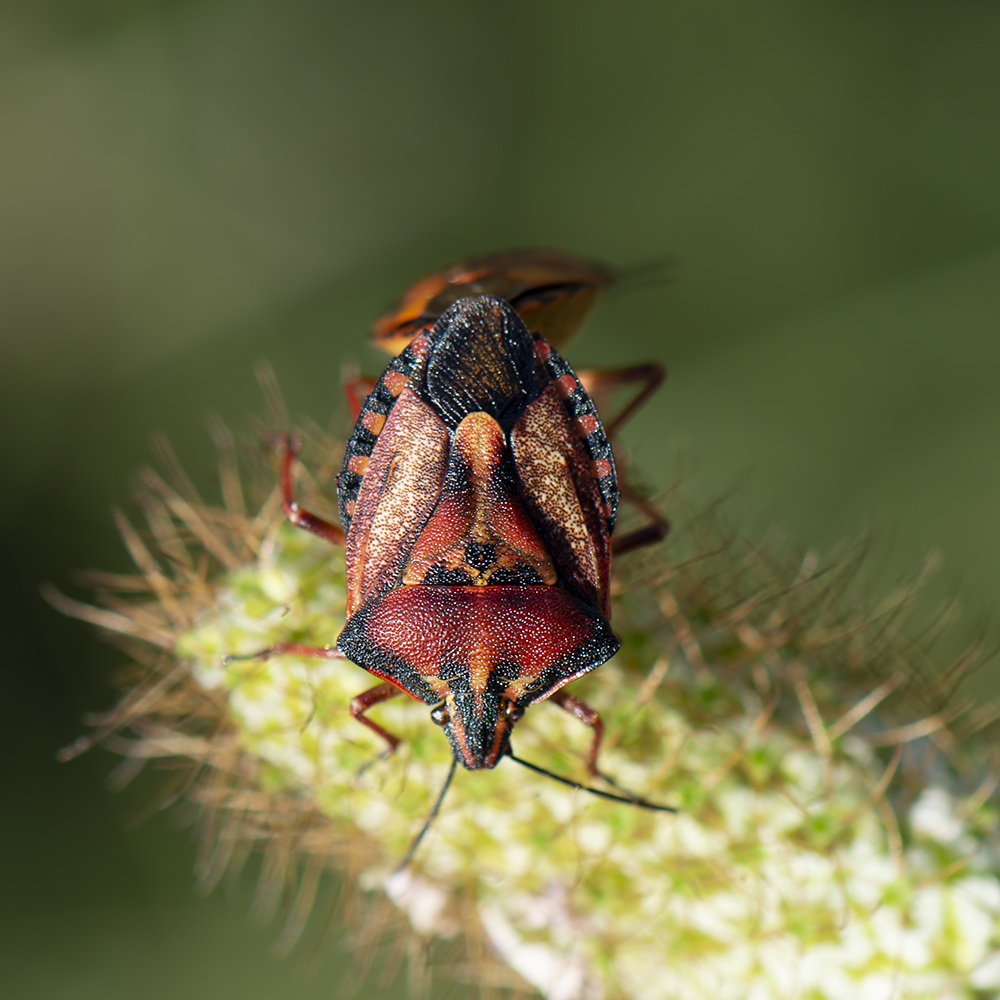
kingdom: Animalia
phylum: Arthropoda
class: Insecta
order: Hemiptera
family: Pentatomidae
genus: Carpocoris
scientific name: Carpocoris mediterraneus
